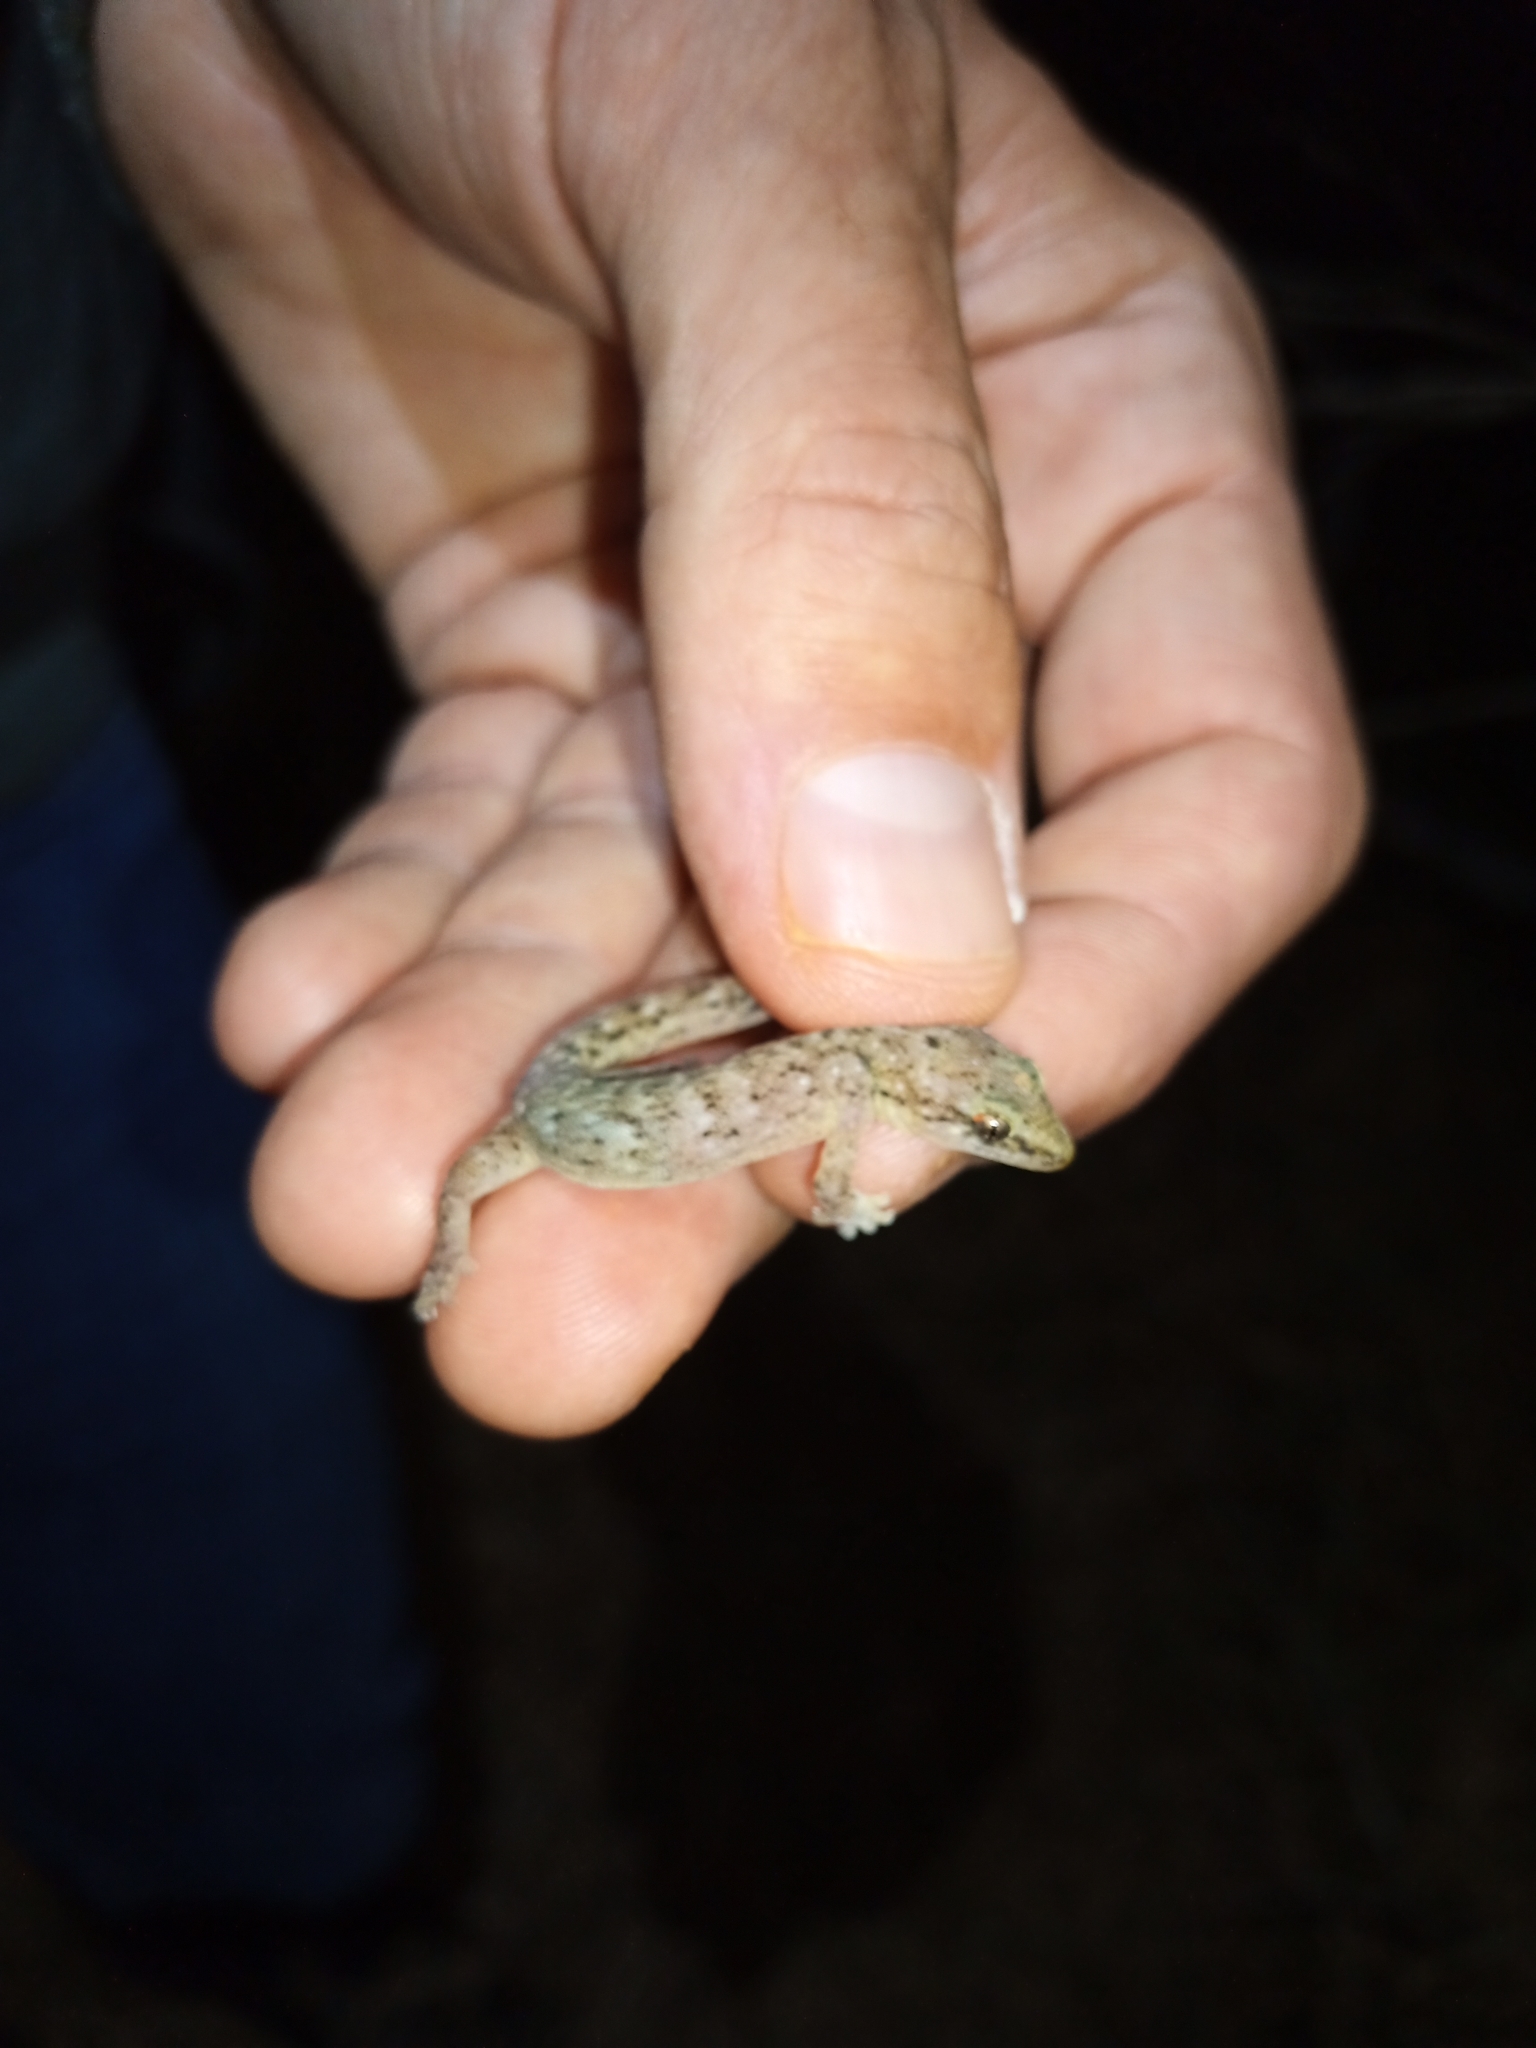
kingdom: Animalia
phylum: Chordata
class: Squamata
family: Gekkonidae
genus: Afrogecko
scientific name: Afrogecko porphyreus
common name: Marbled leaf-toed gecko
